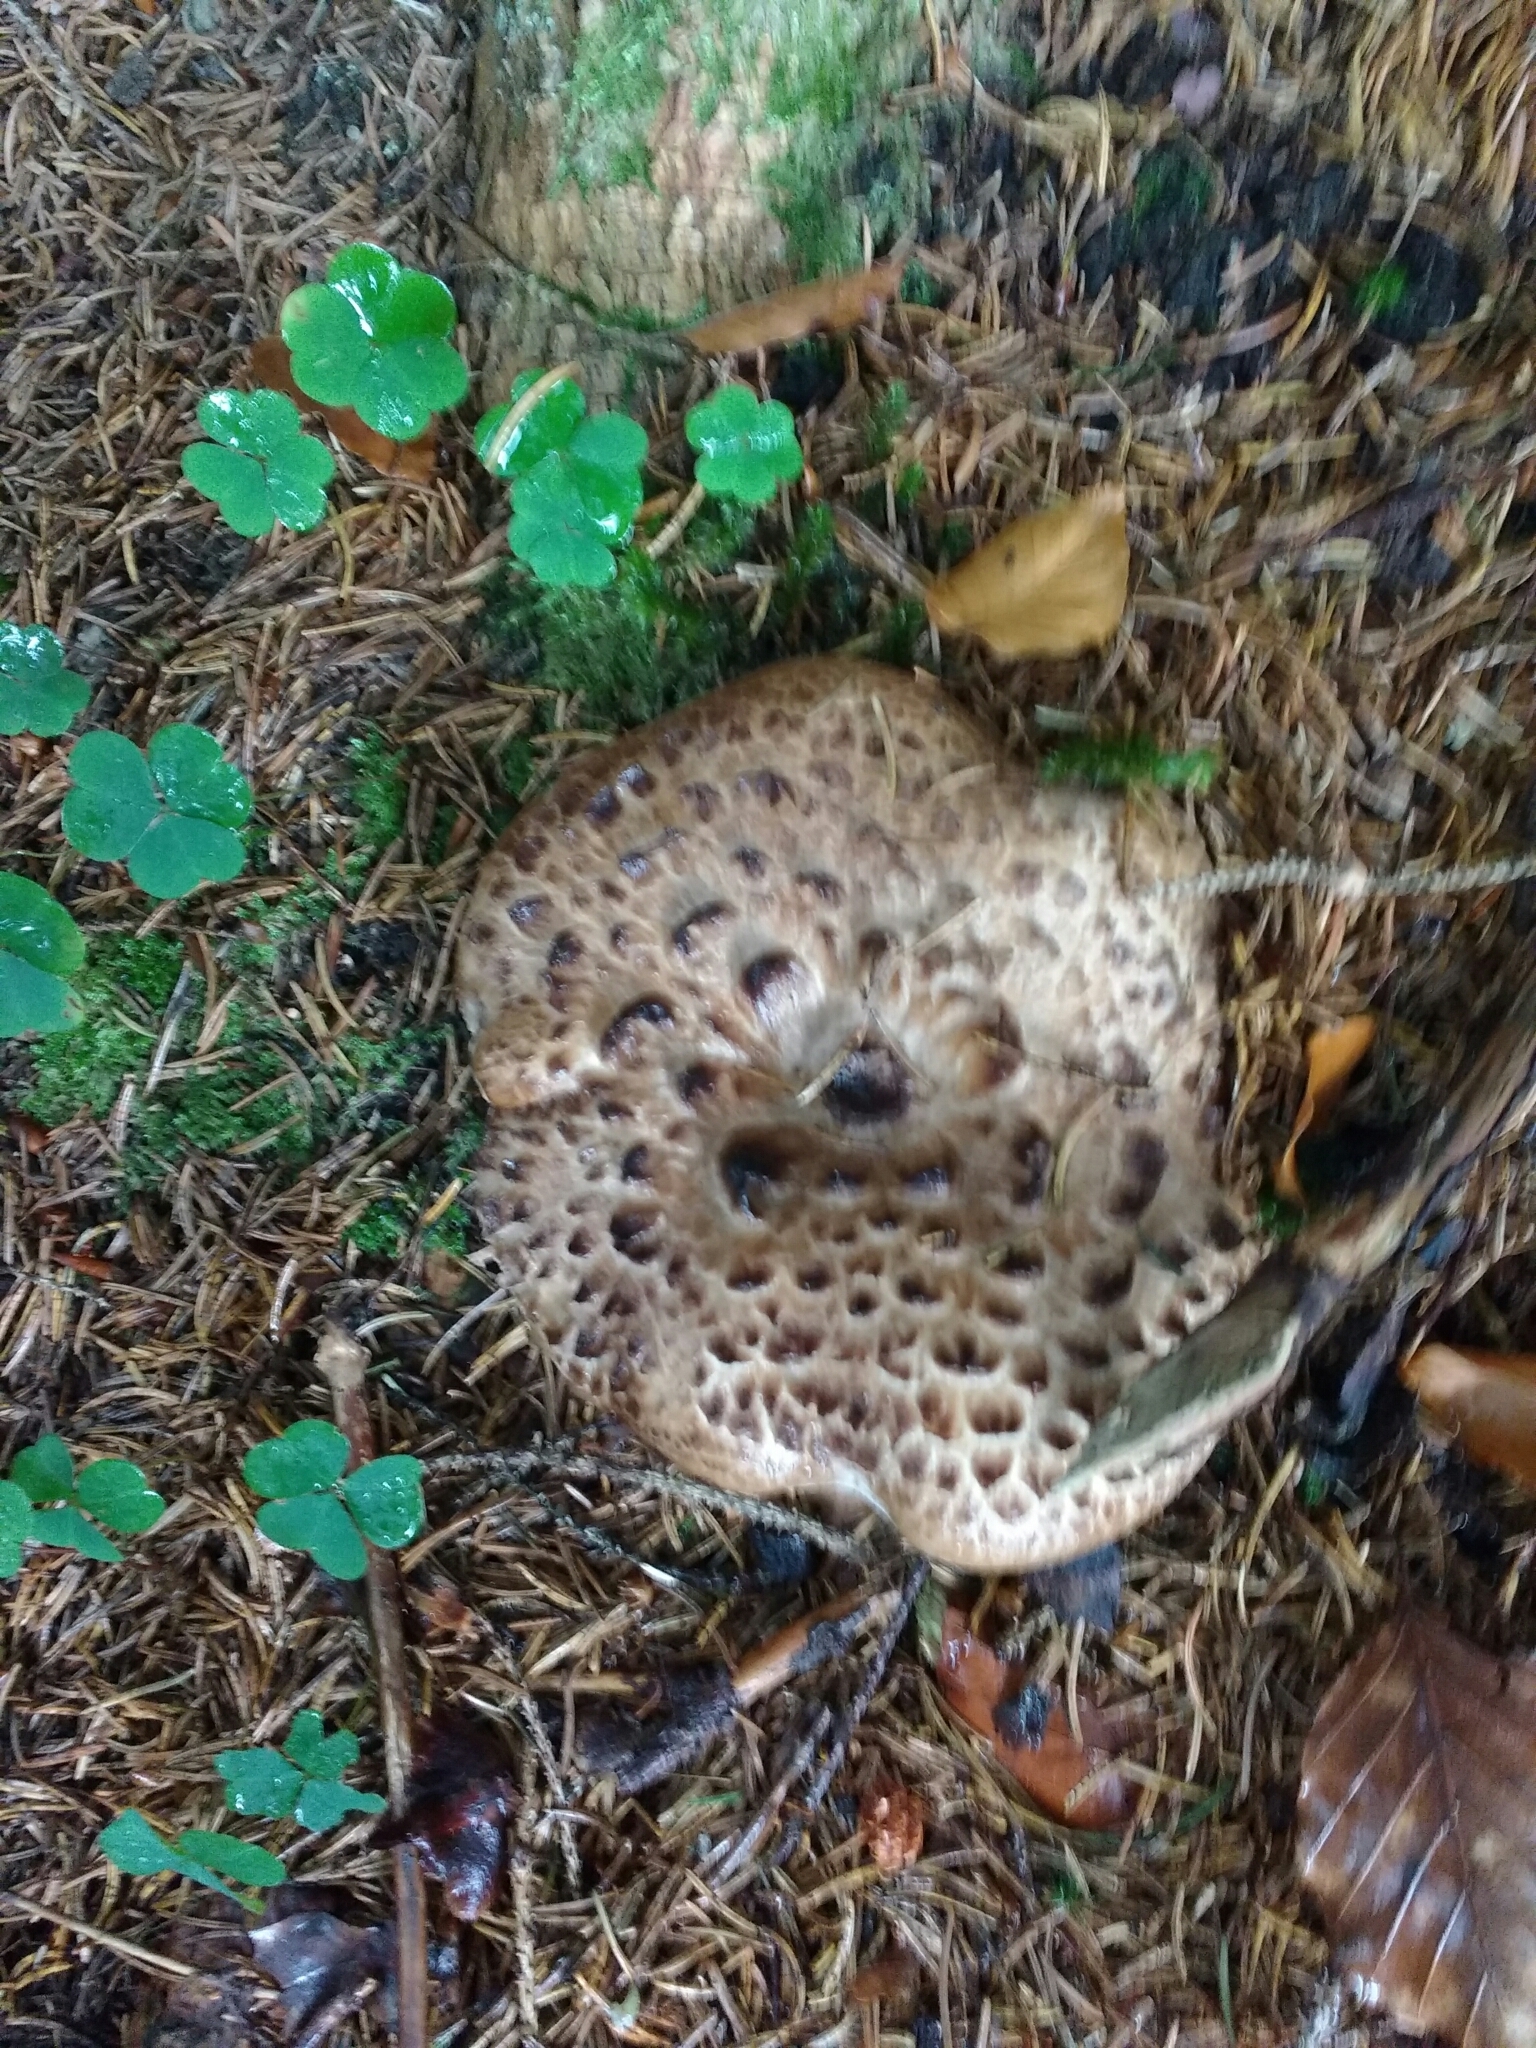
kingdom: Fungi
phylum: Basidiomycota
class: Agaricomycetes
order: Thelephorales
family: Bankeraceae
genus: Sarcodon
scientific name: Sarcodon imbricatus
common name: Shingled hedgehog
